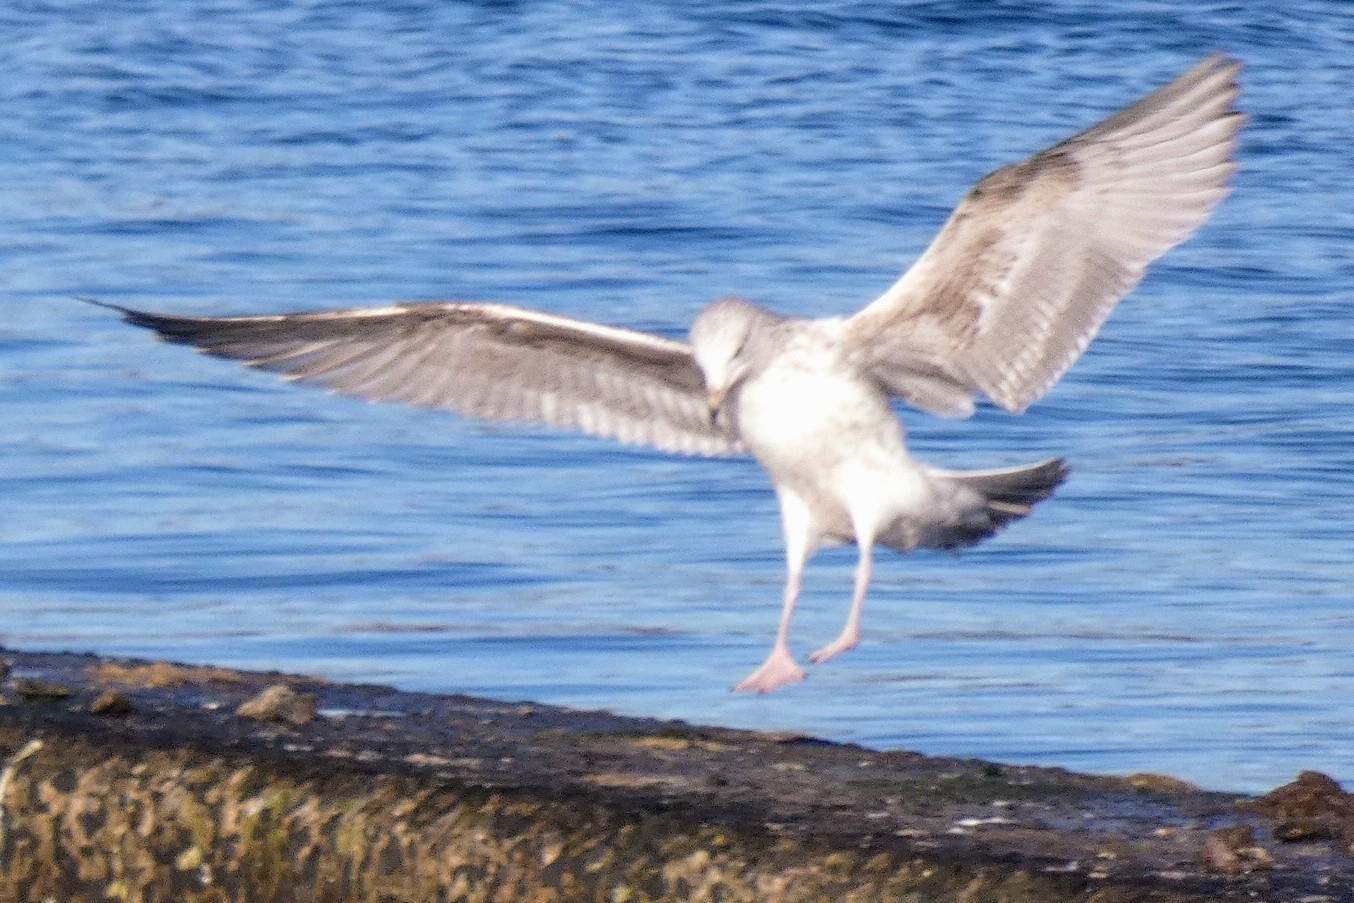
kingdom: Animalia
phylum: Chordata
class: Aves
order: Charadriiformes
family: Laridae
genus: Larus
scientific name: Larus argentatus
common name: Herring gull
